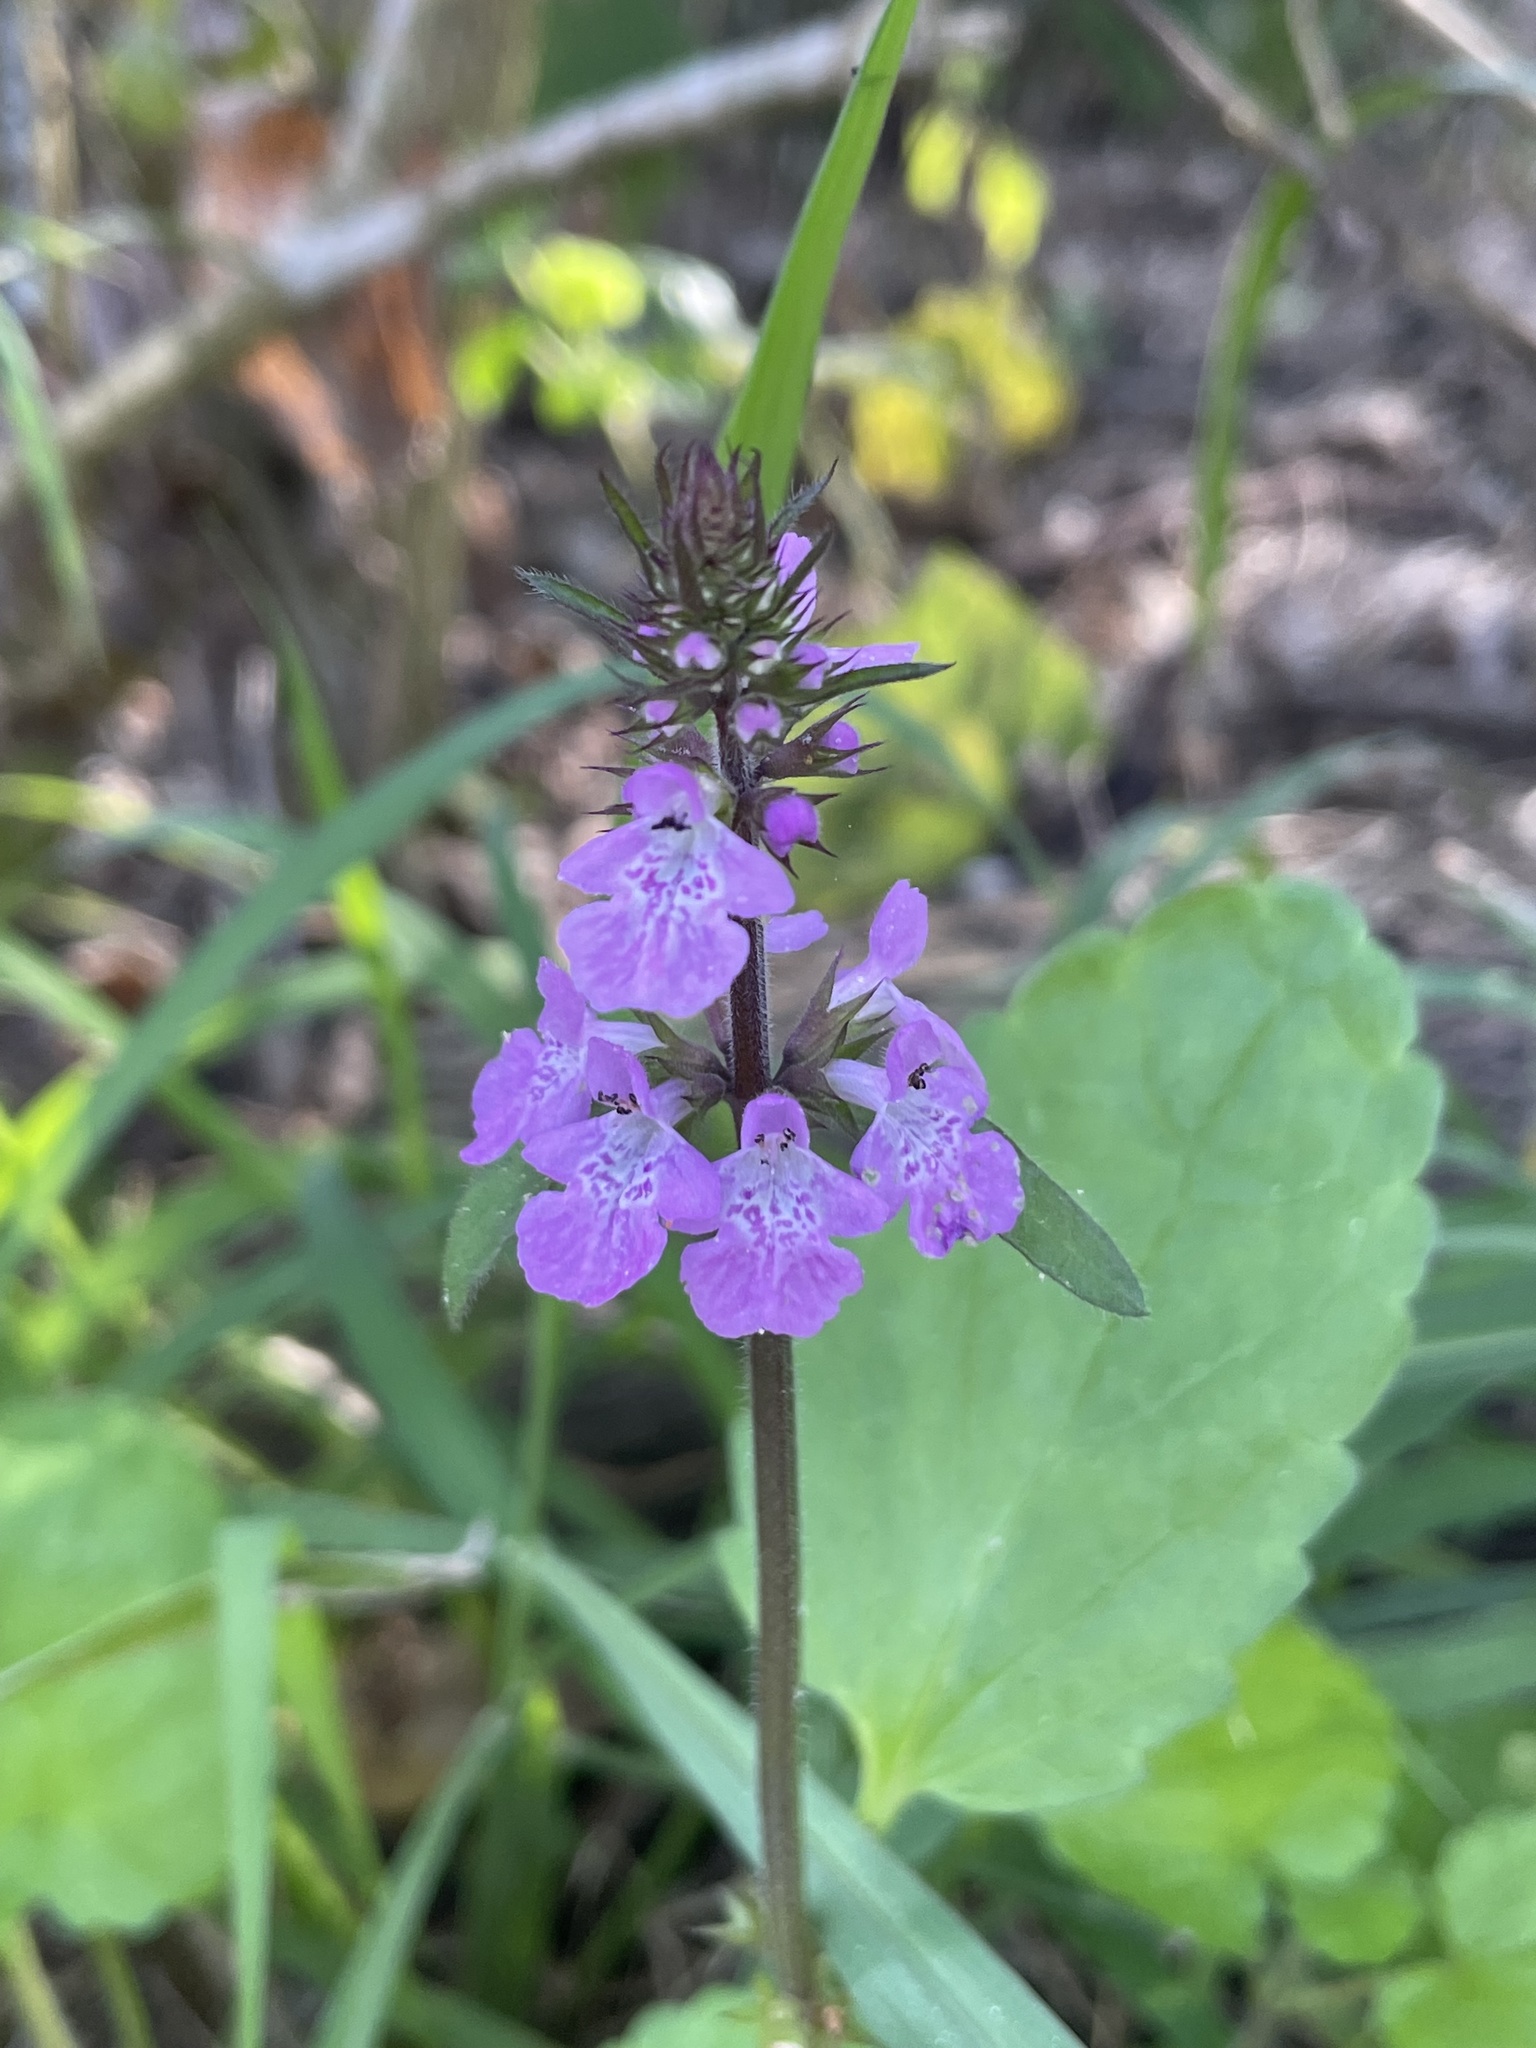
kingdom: Plantae
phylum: Tracheophyta
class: Magnoliopsida
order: Lamiales
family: Lamiaceae
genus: Stachys
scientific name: Stachys drummondii
